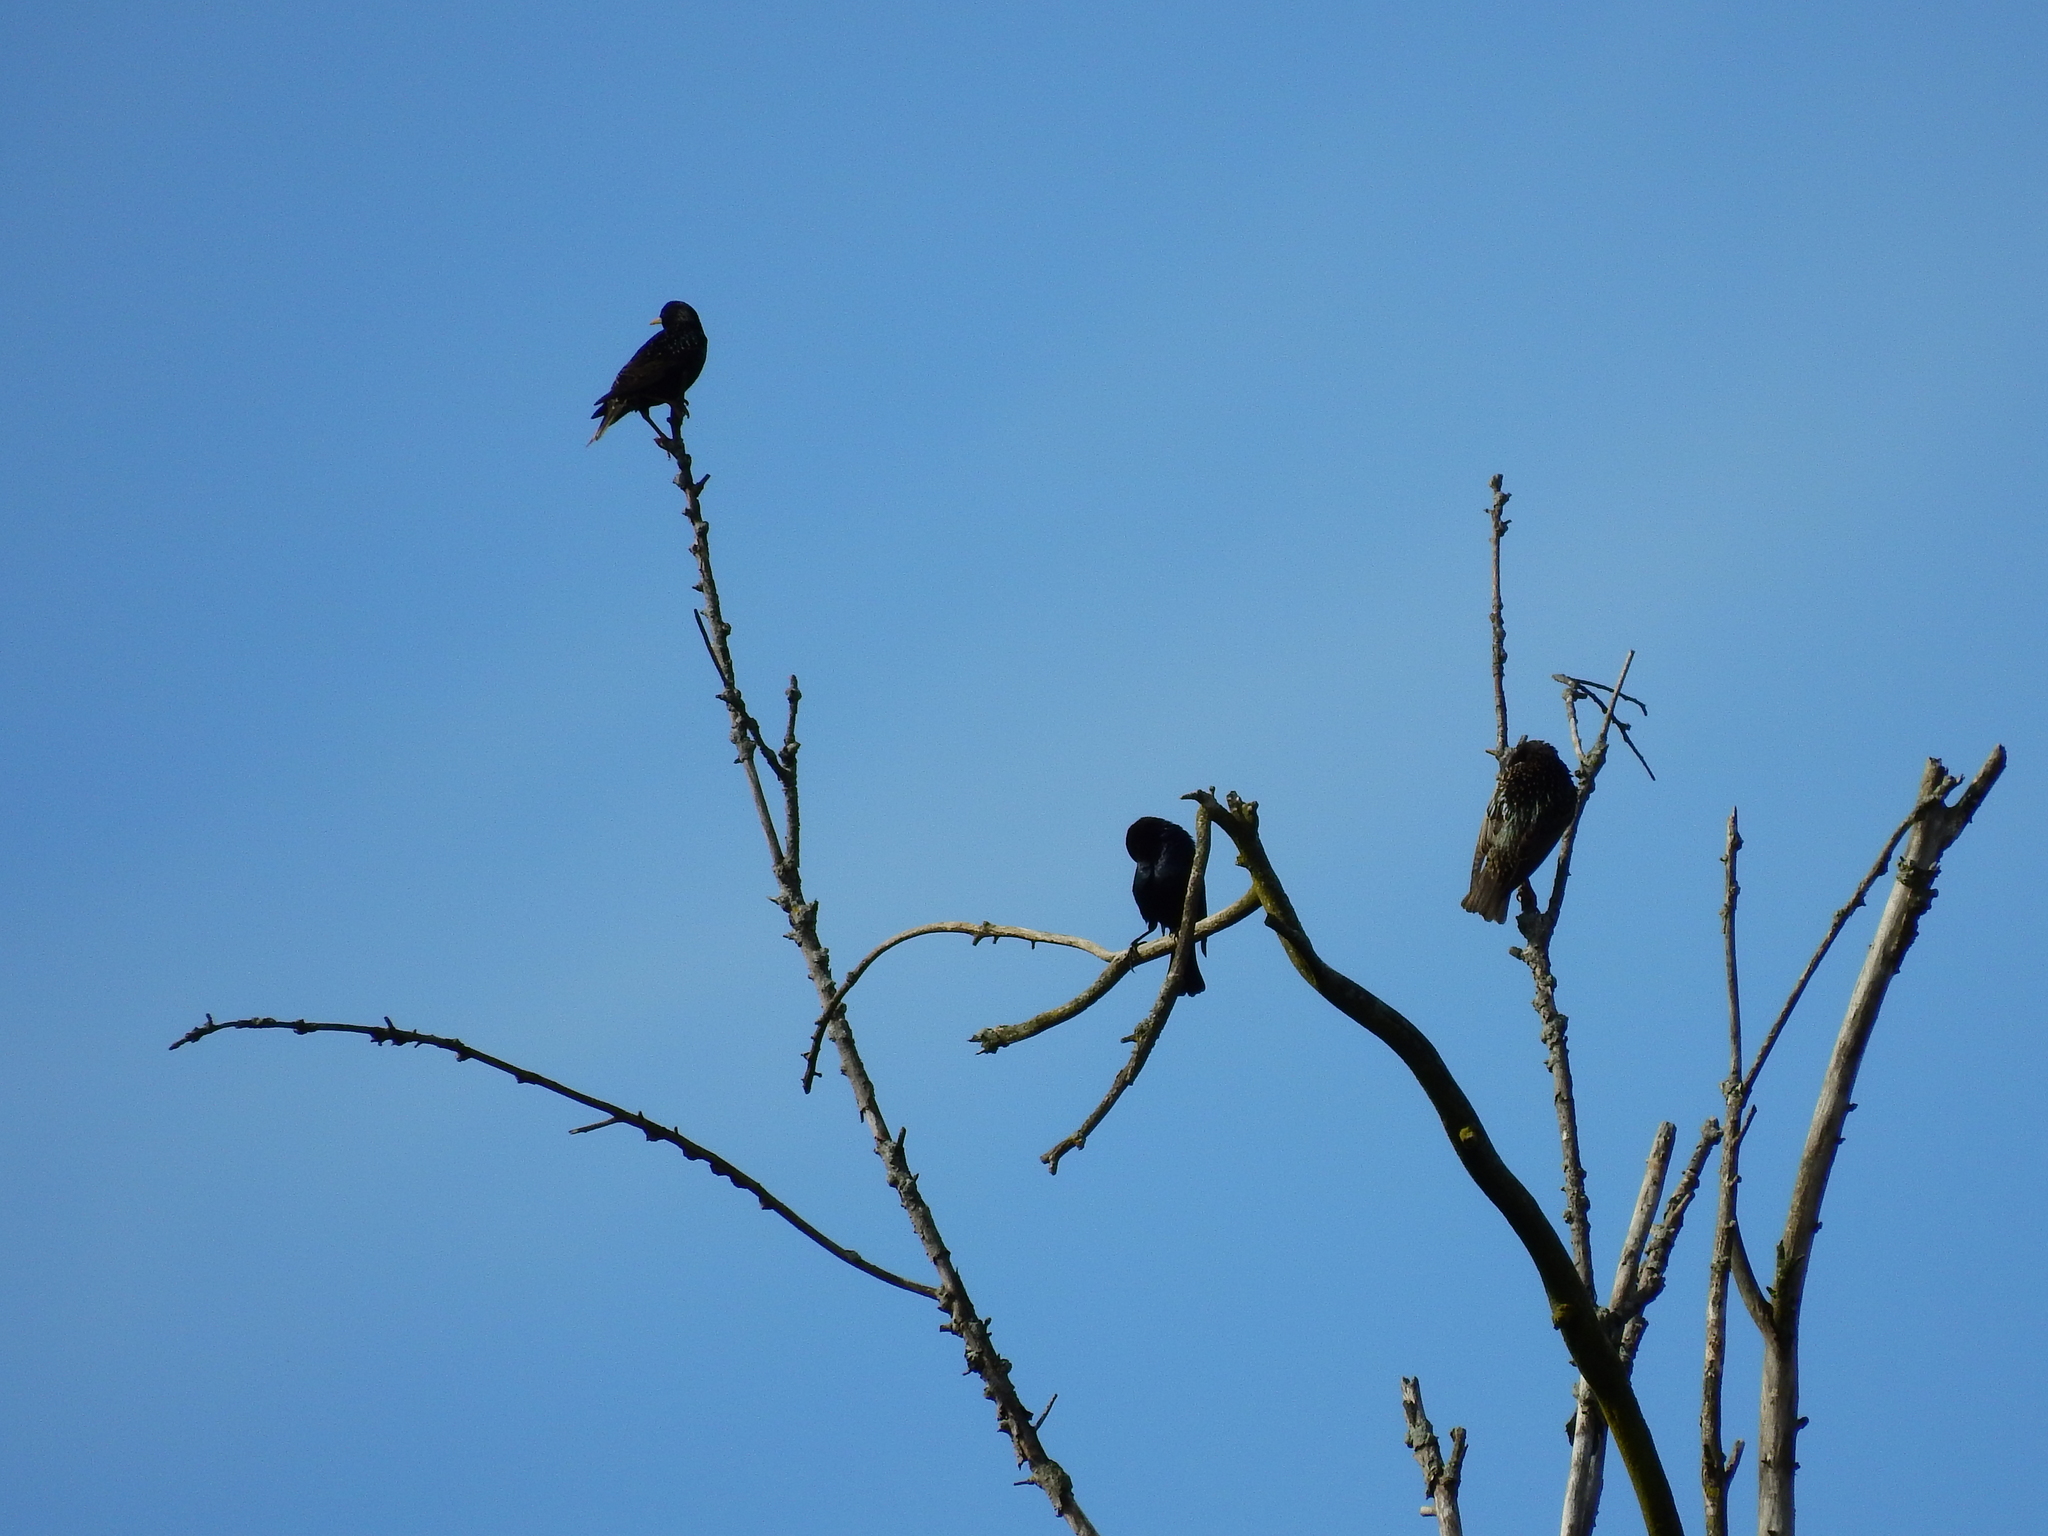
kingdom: Animalia
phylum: Chordata
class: Aves
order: Passeriformes
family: Sturnidae
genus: Sturnus
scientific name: Sturnus vulgaris
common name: Common starling
